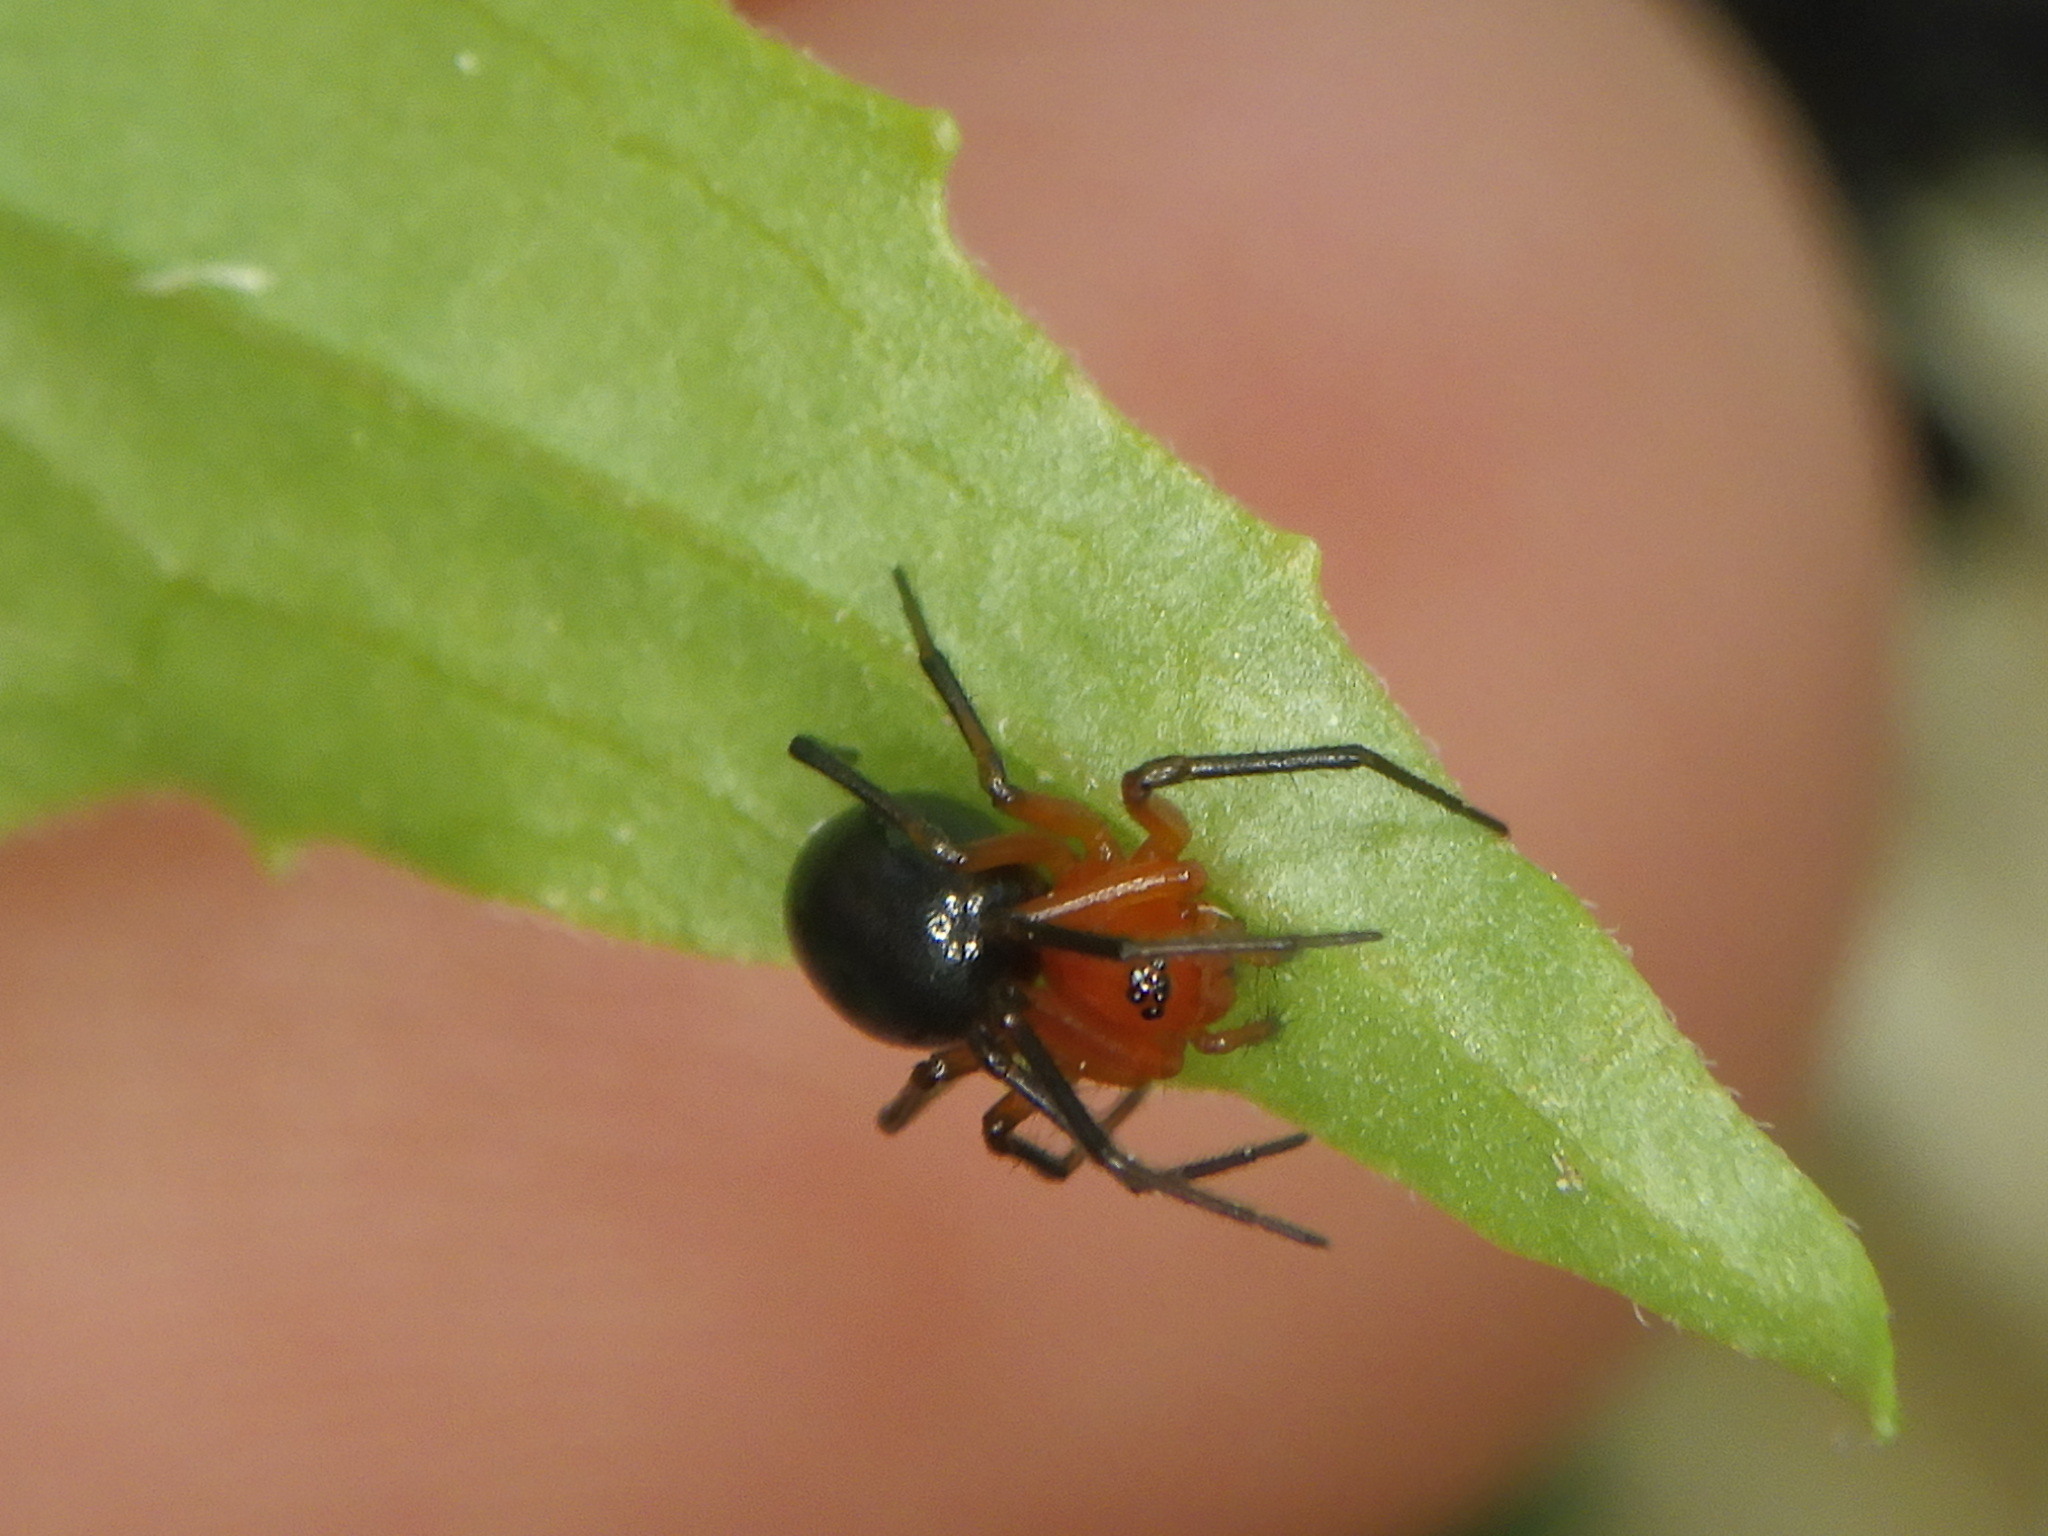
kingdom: Animalia
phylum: Arthropoda
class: Arachnida
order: Araneae
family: Linyphiidae
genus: Hypselistes
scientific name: Hypselistes florens
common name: Peatland sheetweb weaver
